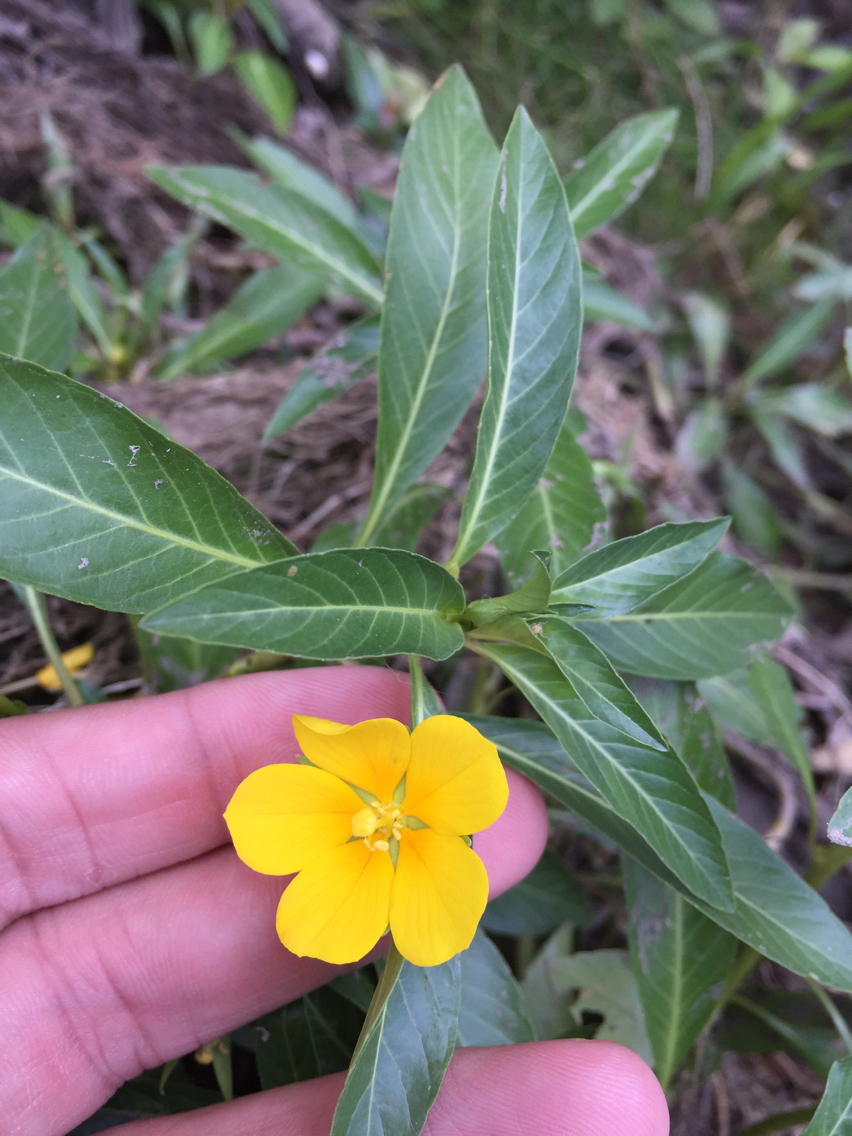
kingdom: Plantae
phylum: Tracheophyta
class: Magnoliopsida
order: Myrtales
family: Onagraceae
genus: Ludwigia
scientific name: Ludwigia peploides
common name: Floating primrose-willow
